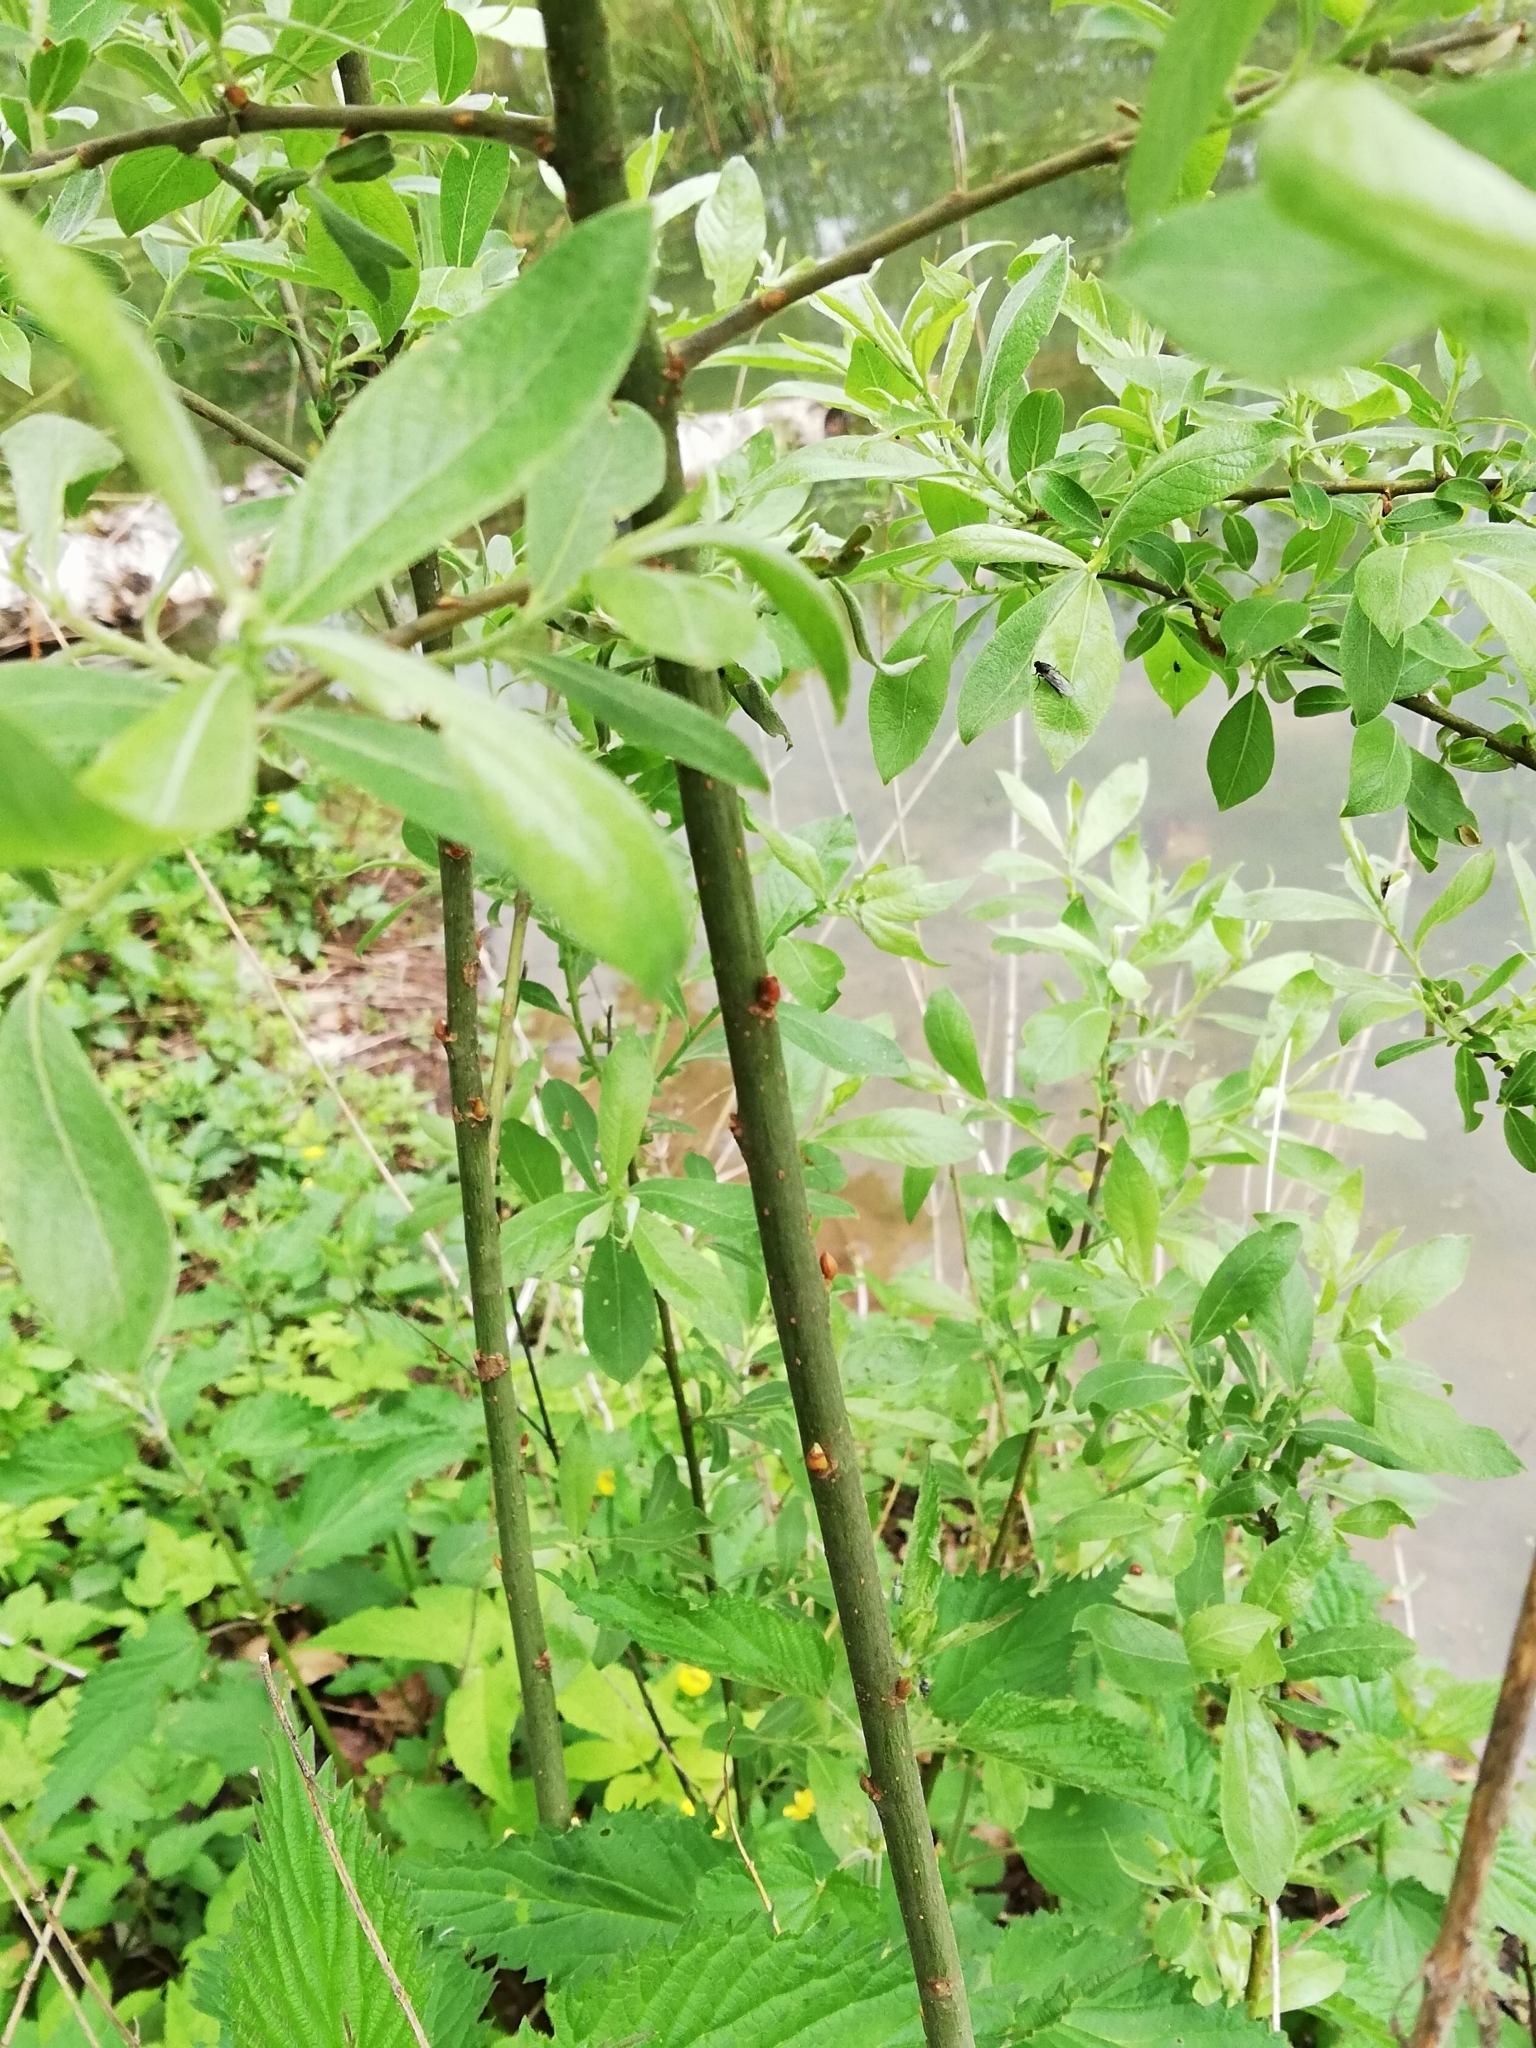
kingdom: Plantae
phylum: Tracheophyta
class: Magnoliopsida
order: Malpighiales
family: Salicaceae
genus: Salix
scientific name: Salix cinerea
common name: Common sallow
